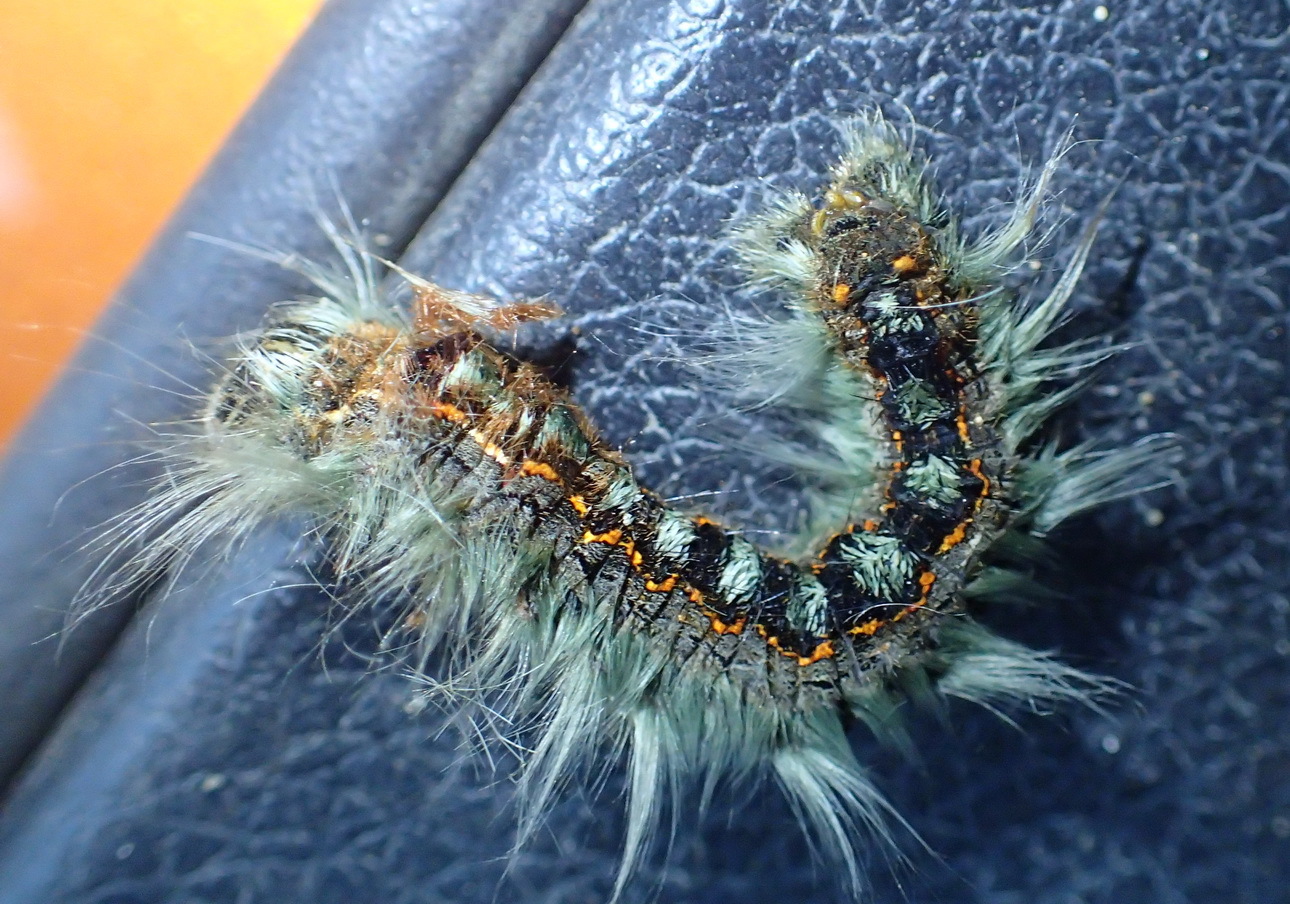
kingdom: Animalia
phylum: Arthropoda
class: Insecta
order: Lepidoptera
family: Lasiocampidae
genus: Eutricha
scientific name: Eutricha capensis
